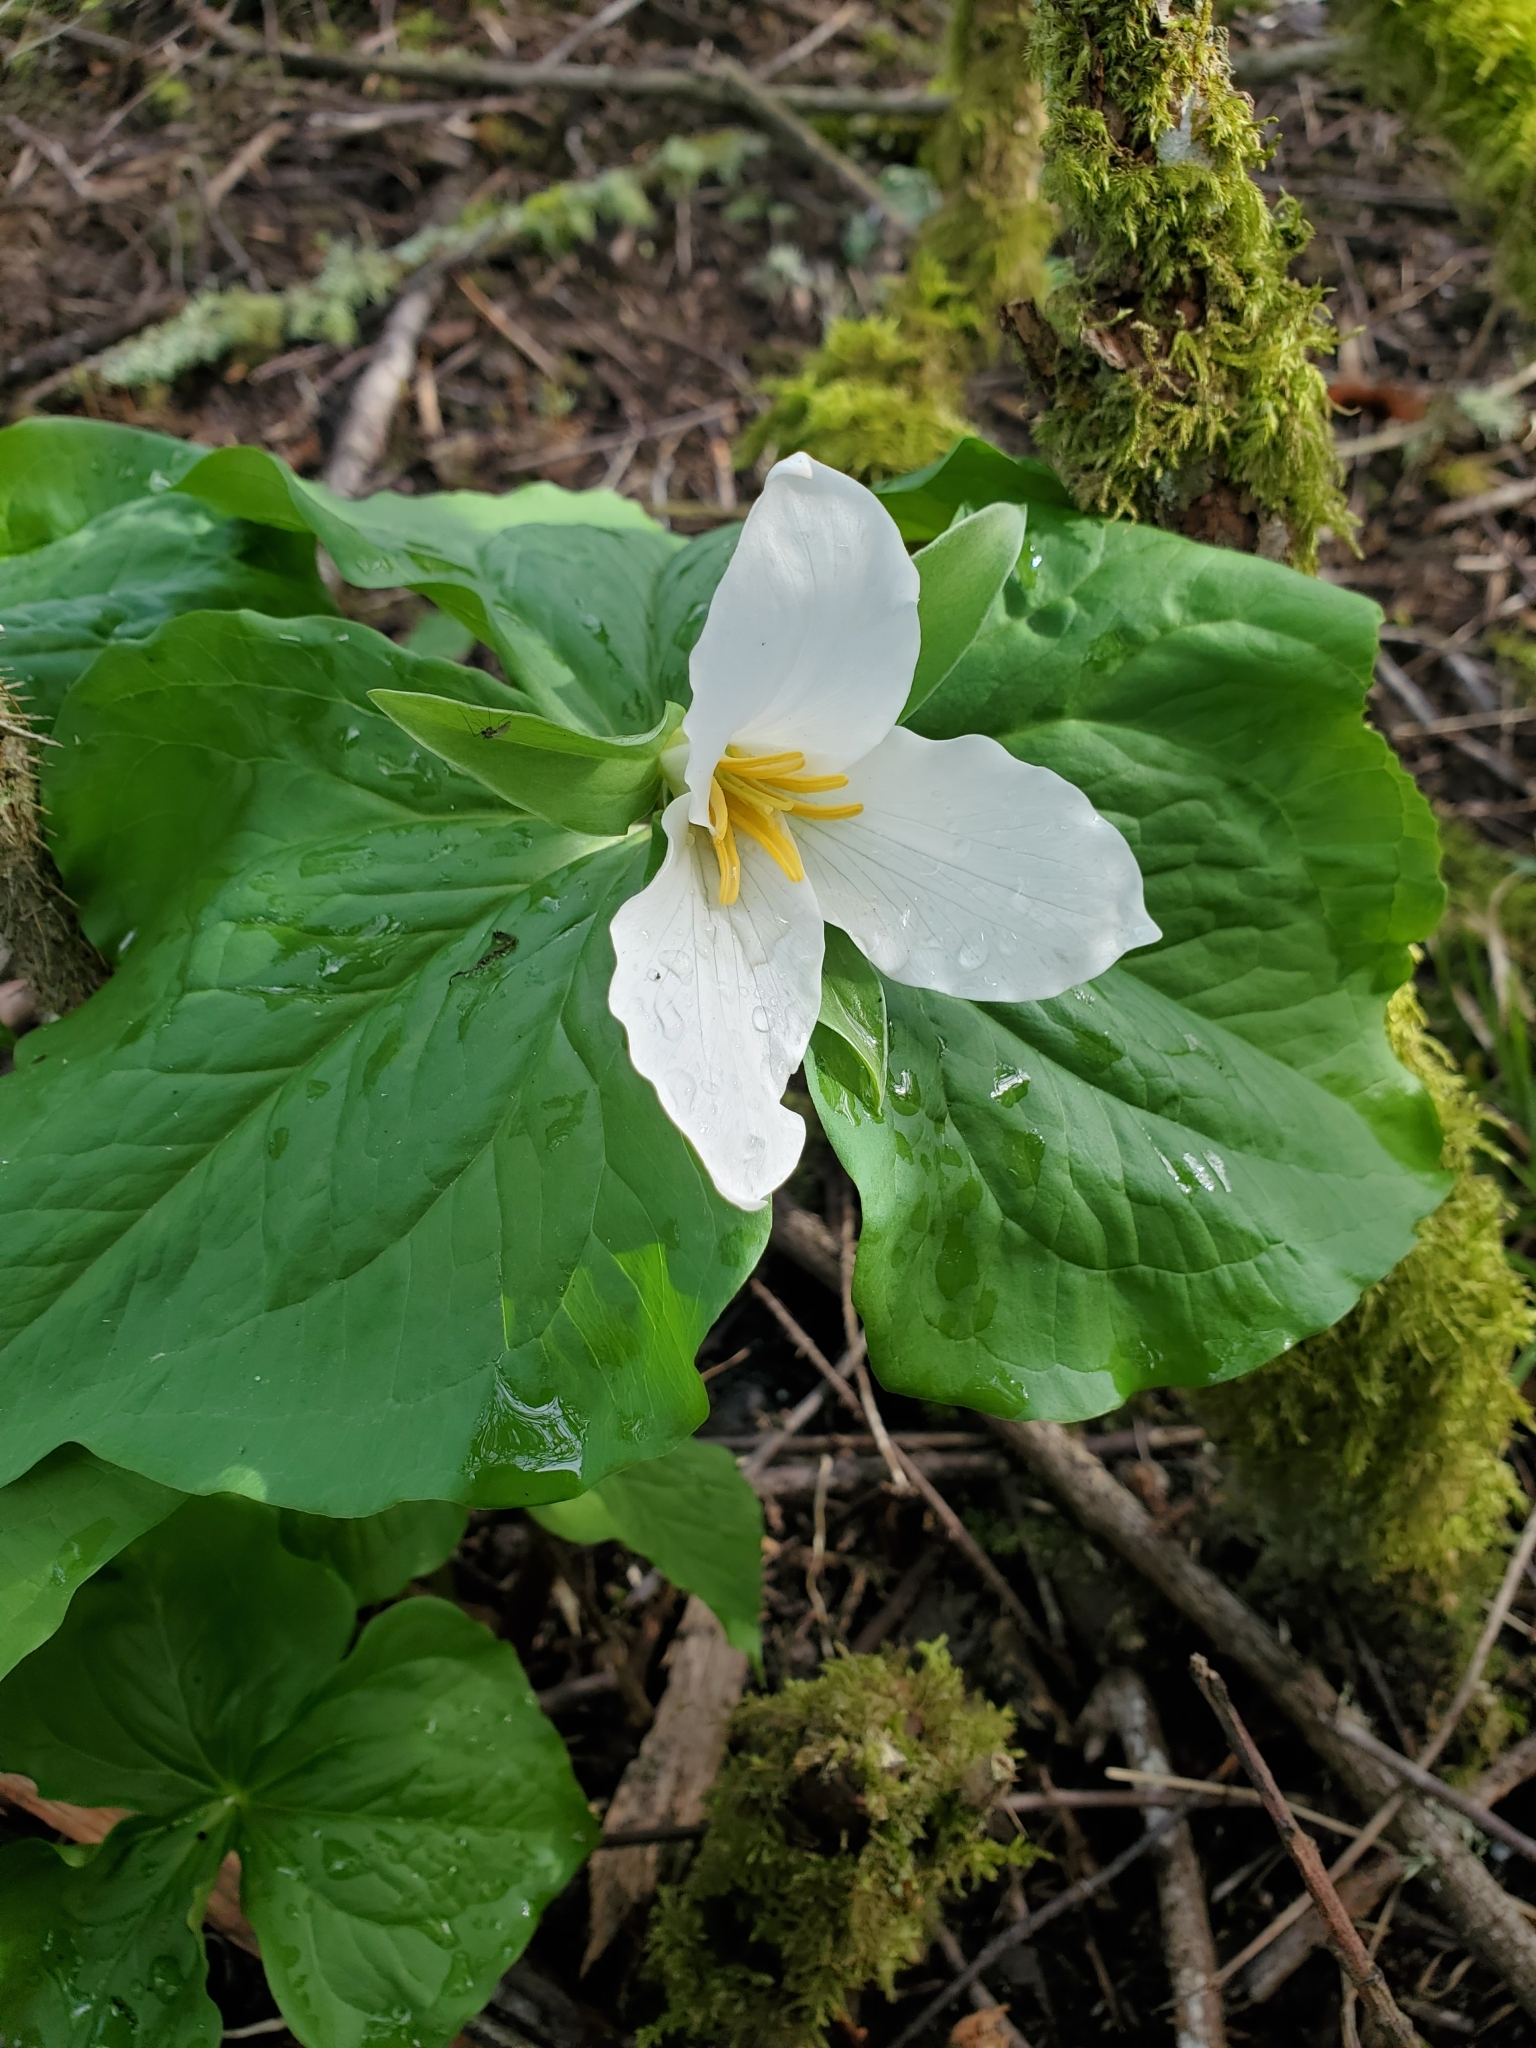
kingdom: Plantae
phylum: Tracheophyta
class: Liliopsida
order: Liliales
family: Melanthiaceae
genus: Trillium
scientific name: Trillium ovatum
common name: Pacific trillium
